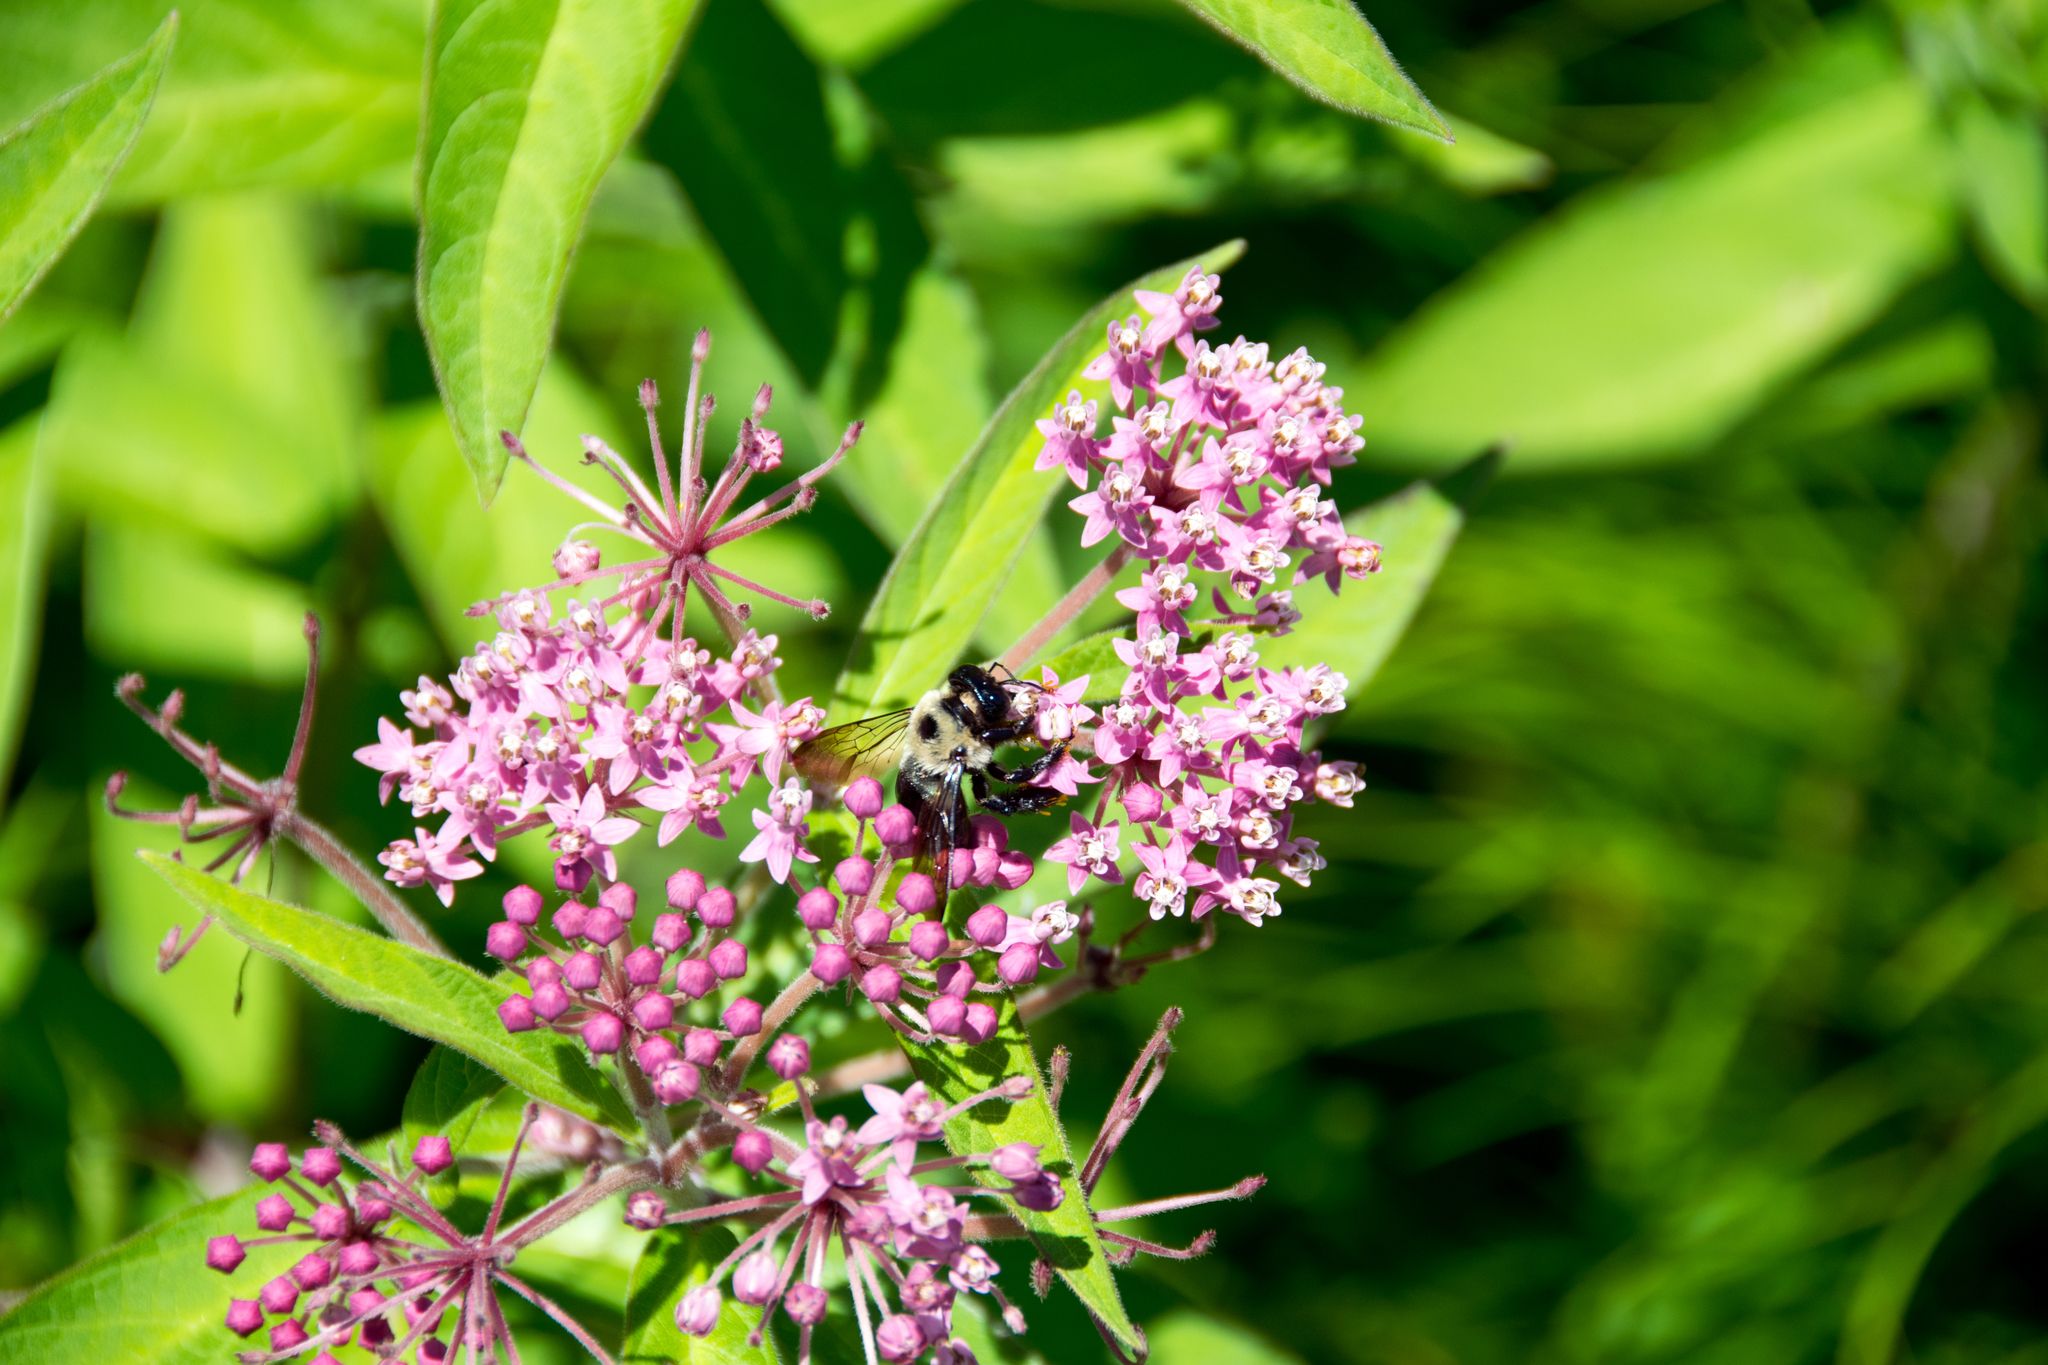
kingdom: Plantae
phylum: Tracheophyta
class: Magnoliopsida
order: Gentianales
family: Apocynaceae
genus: Asclepias
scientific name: Asclepias incarnata
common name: Swamp milkweed
